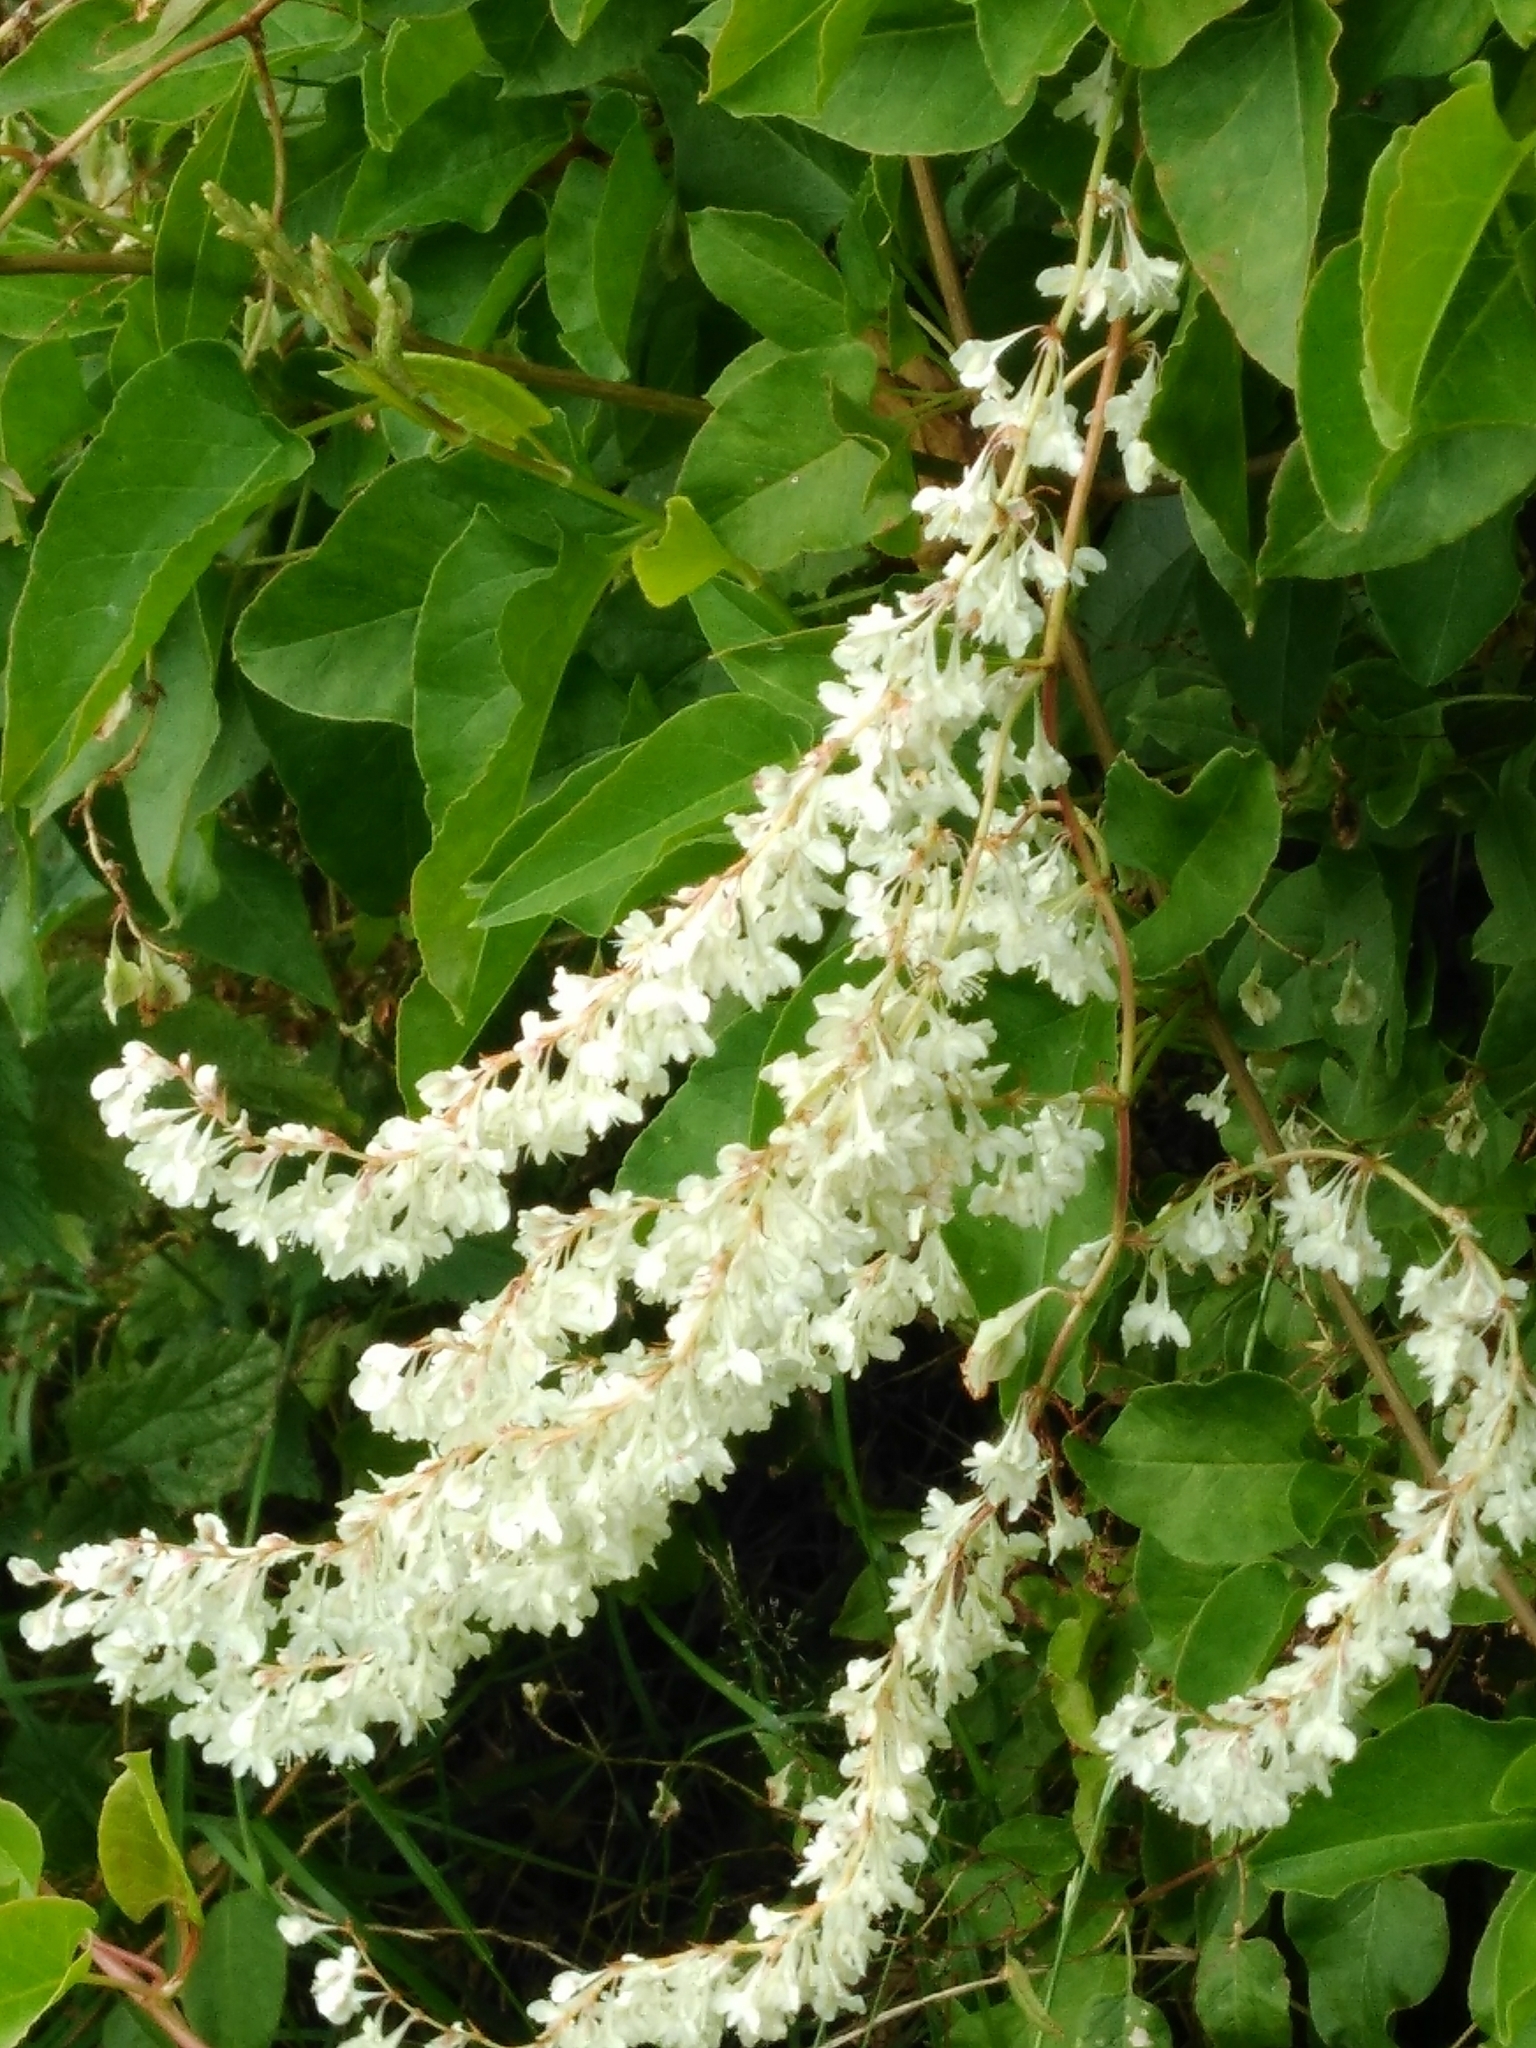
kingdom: Plantae
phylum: Tracheophyta
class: Magnoliopsida
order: Caryophyllales
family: Polygonaceae
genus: Fallopia
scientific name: Fallopia baldschuanica
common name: Russian-vine
